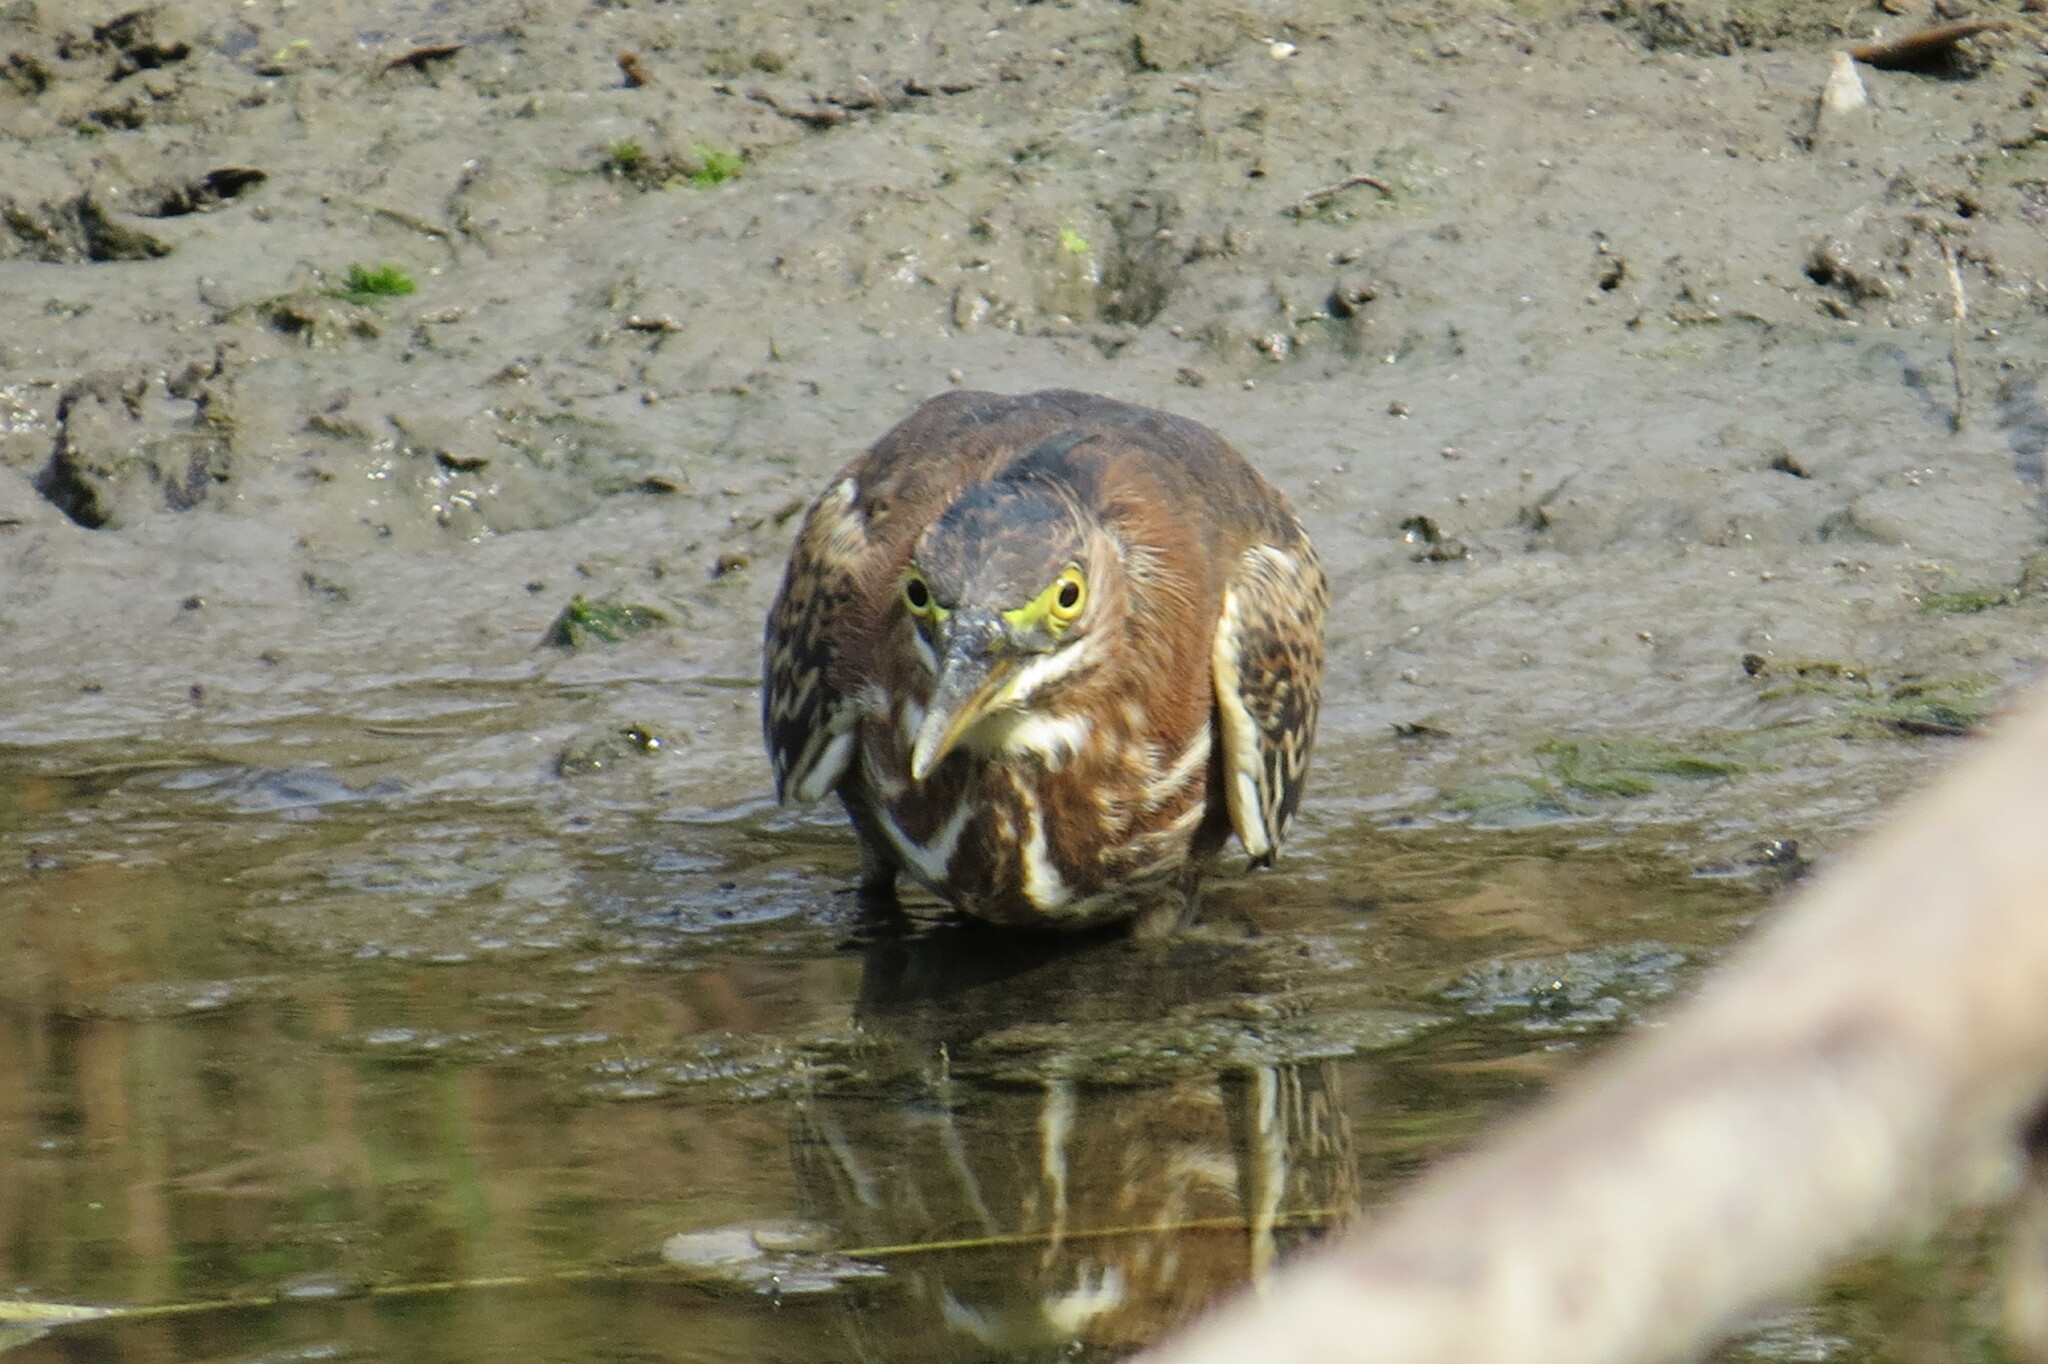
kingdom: Animalia
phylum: Chordata
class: Aves
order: Pelecaniformes
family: Ardeidae
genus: Butorides
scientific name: Butorides virescens
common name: Green heron
